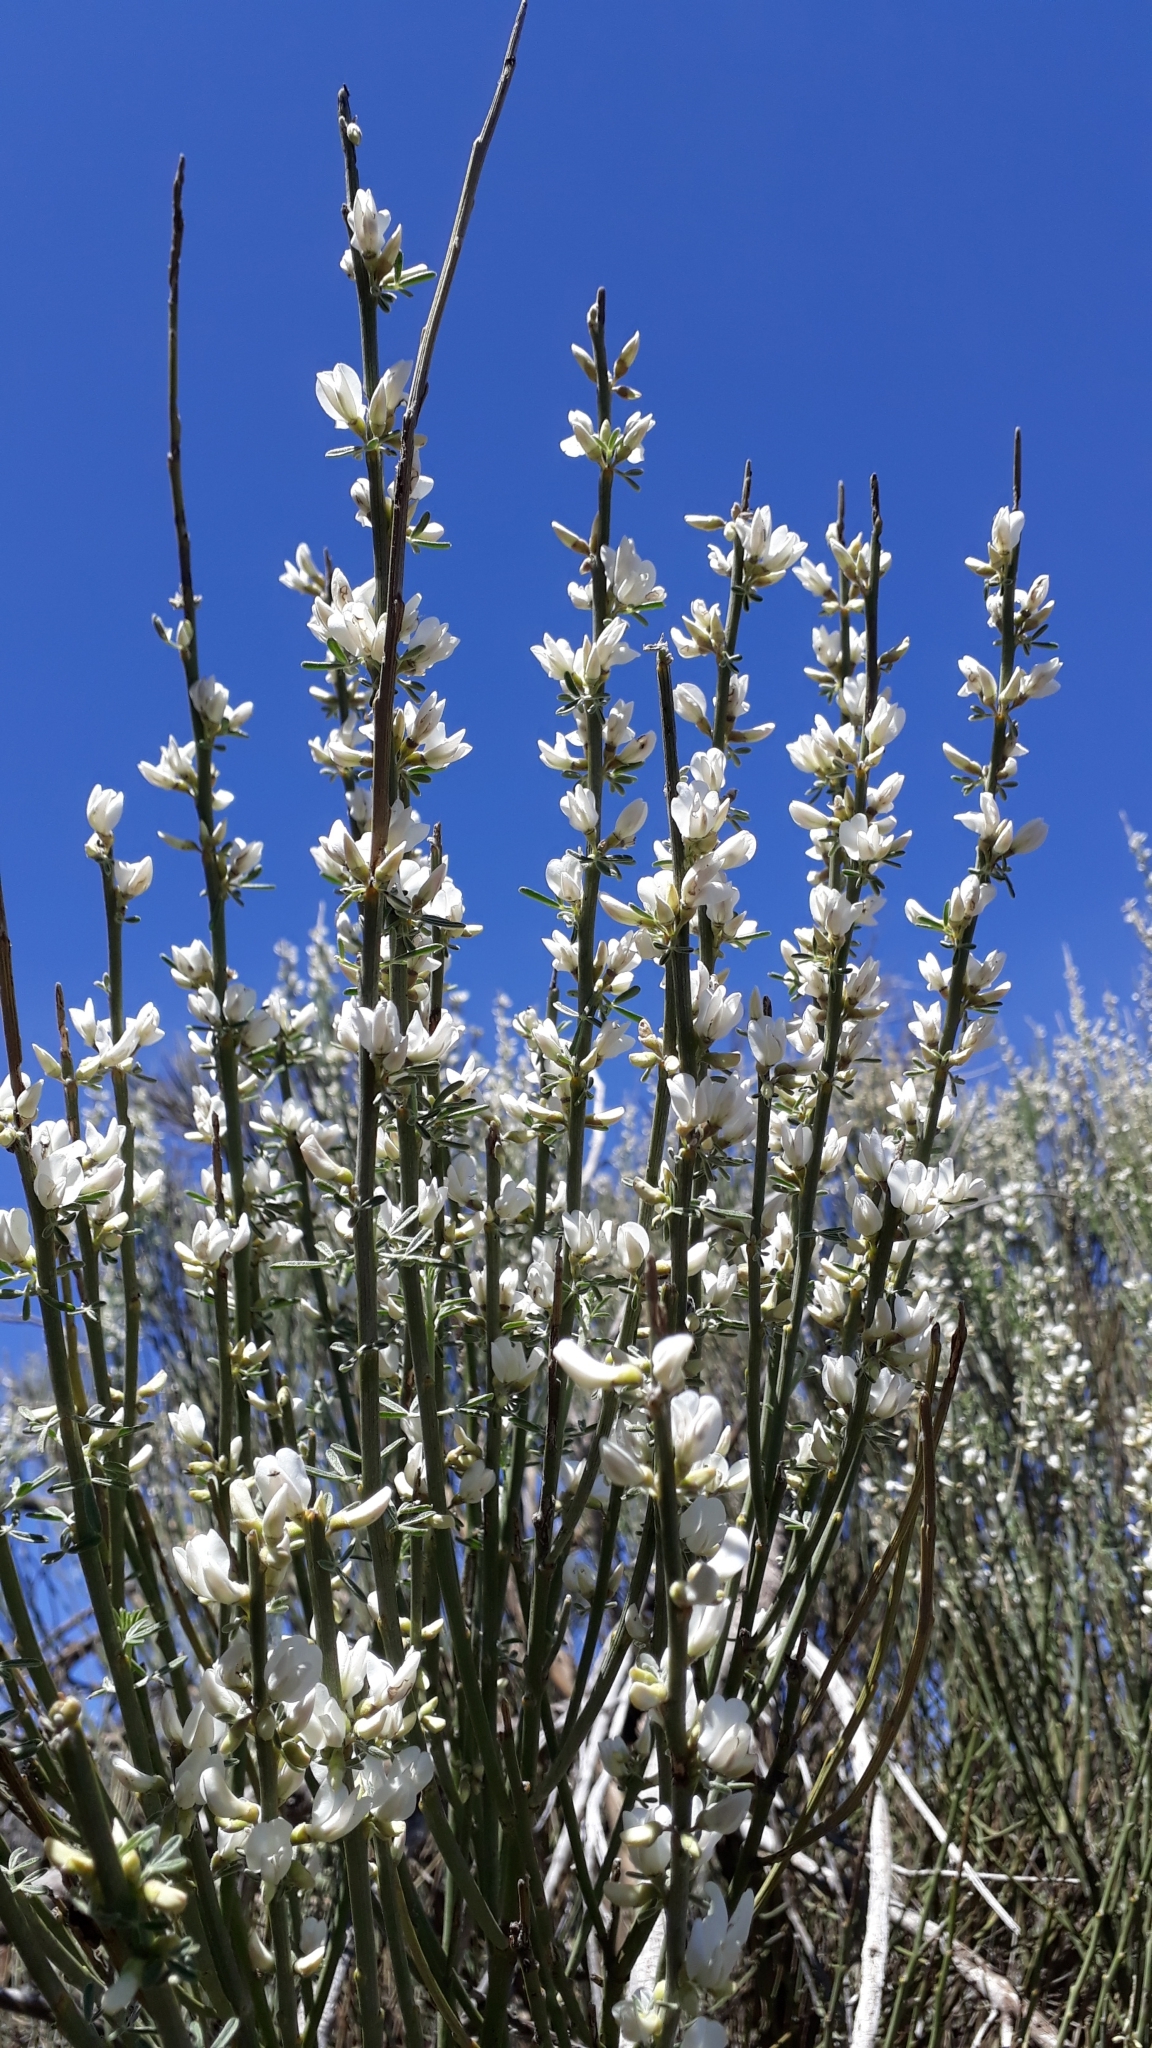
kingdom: Plantae
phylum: Tracheophyta
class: Magnoliopsida
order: Fabales
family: Fabaceae
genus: Cytisus
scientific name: Cytisus supranubius
